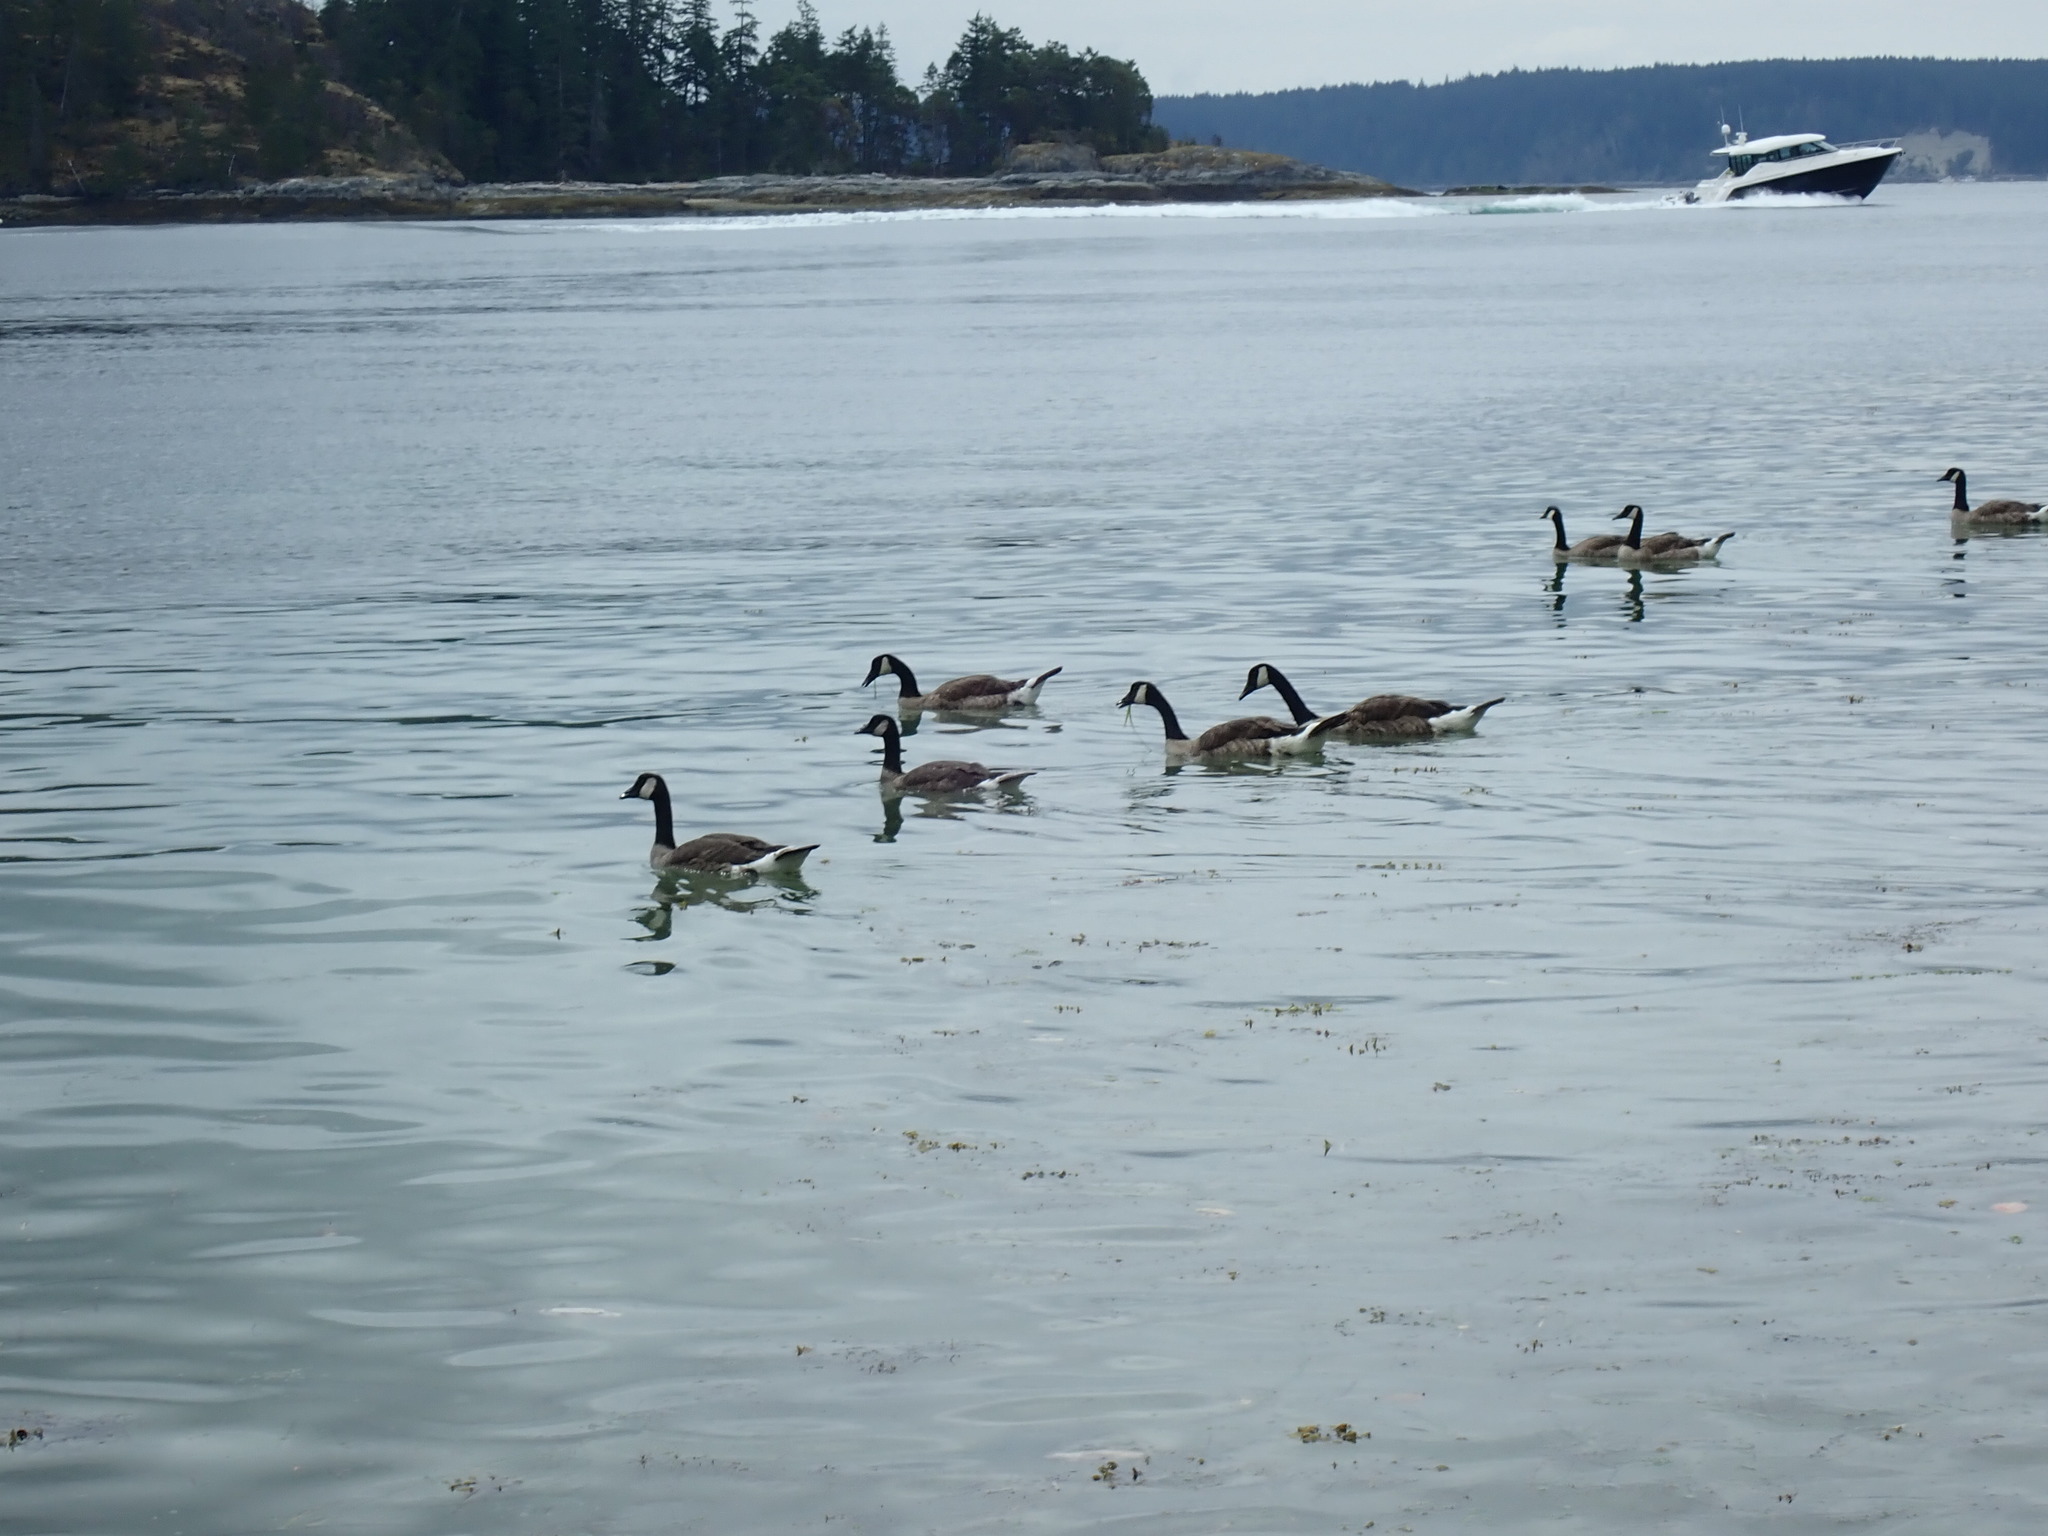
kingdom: Animalia
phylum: Chordata
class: Aves
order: Anseriformes
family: Anatidae
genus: Branta
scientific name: Branta canadensis
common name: Canada goose
